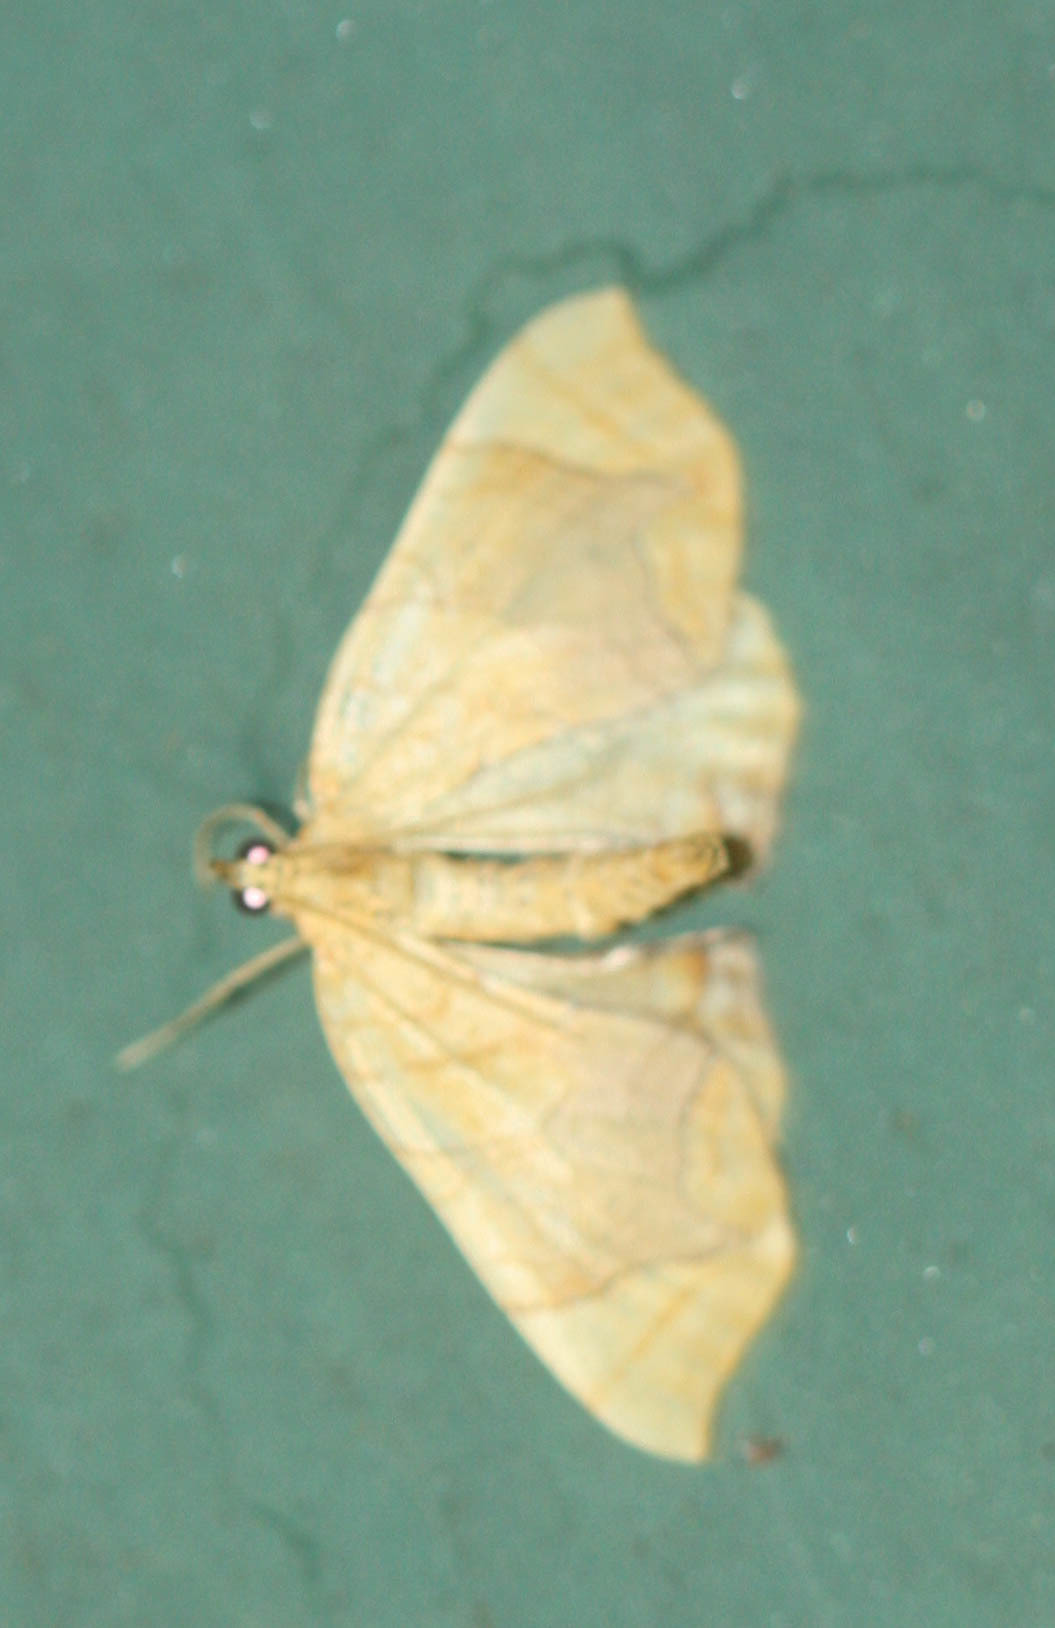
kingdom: Animalia
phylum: Arthropoda
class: Insecta
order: Lepidoptera
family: Geometridae
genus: Eulithis
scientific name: Eulithis diversilineata
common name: Grapevine looper
